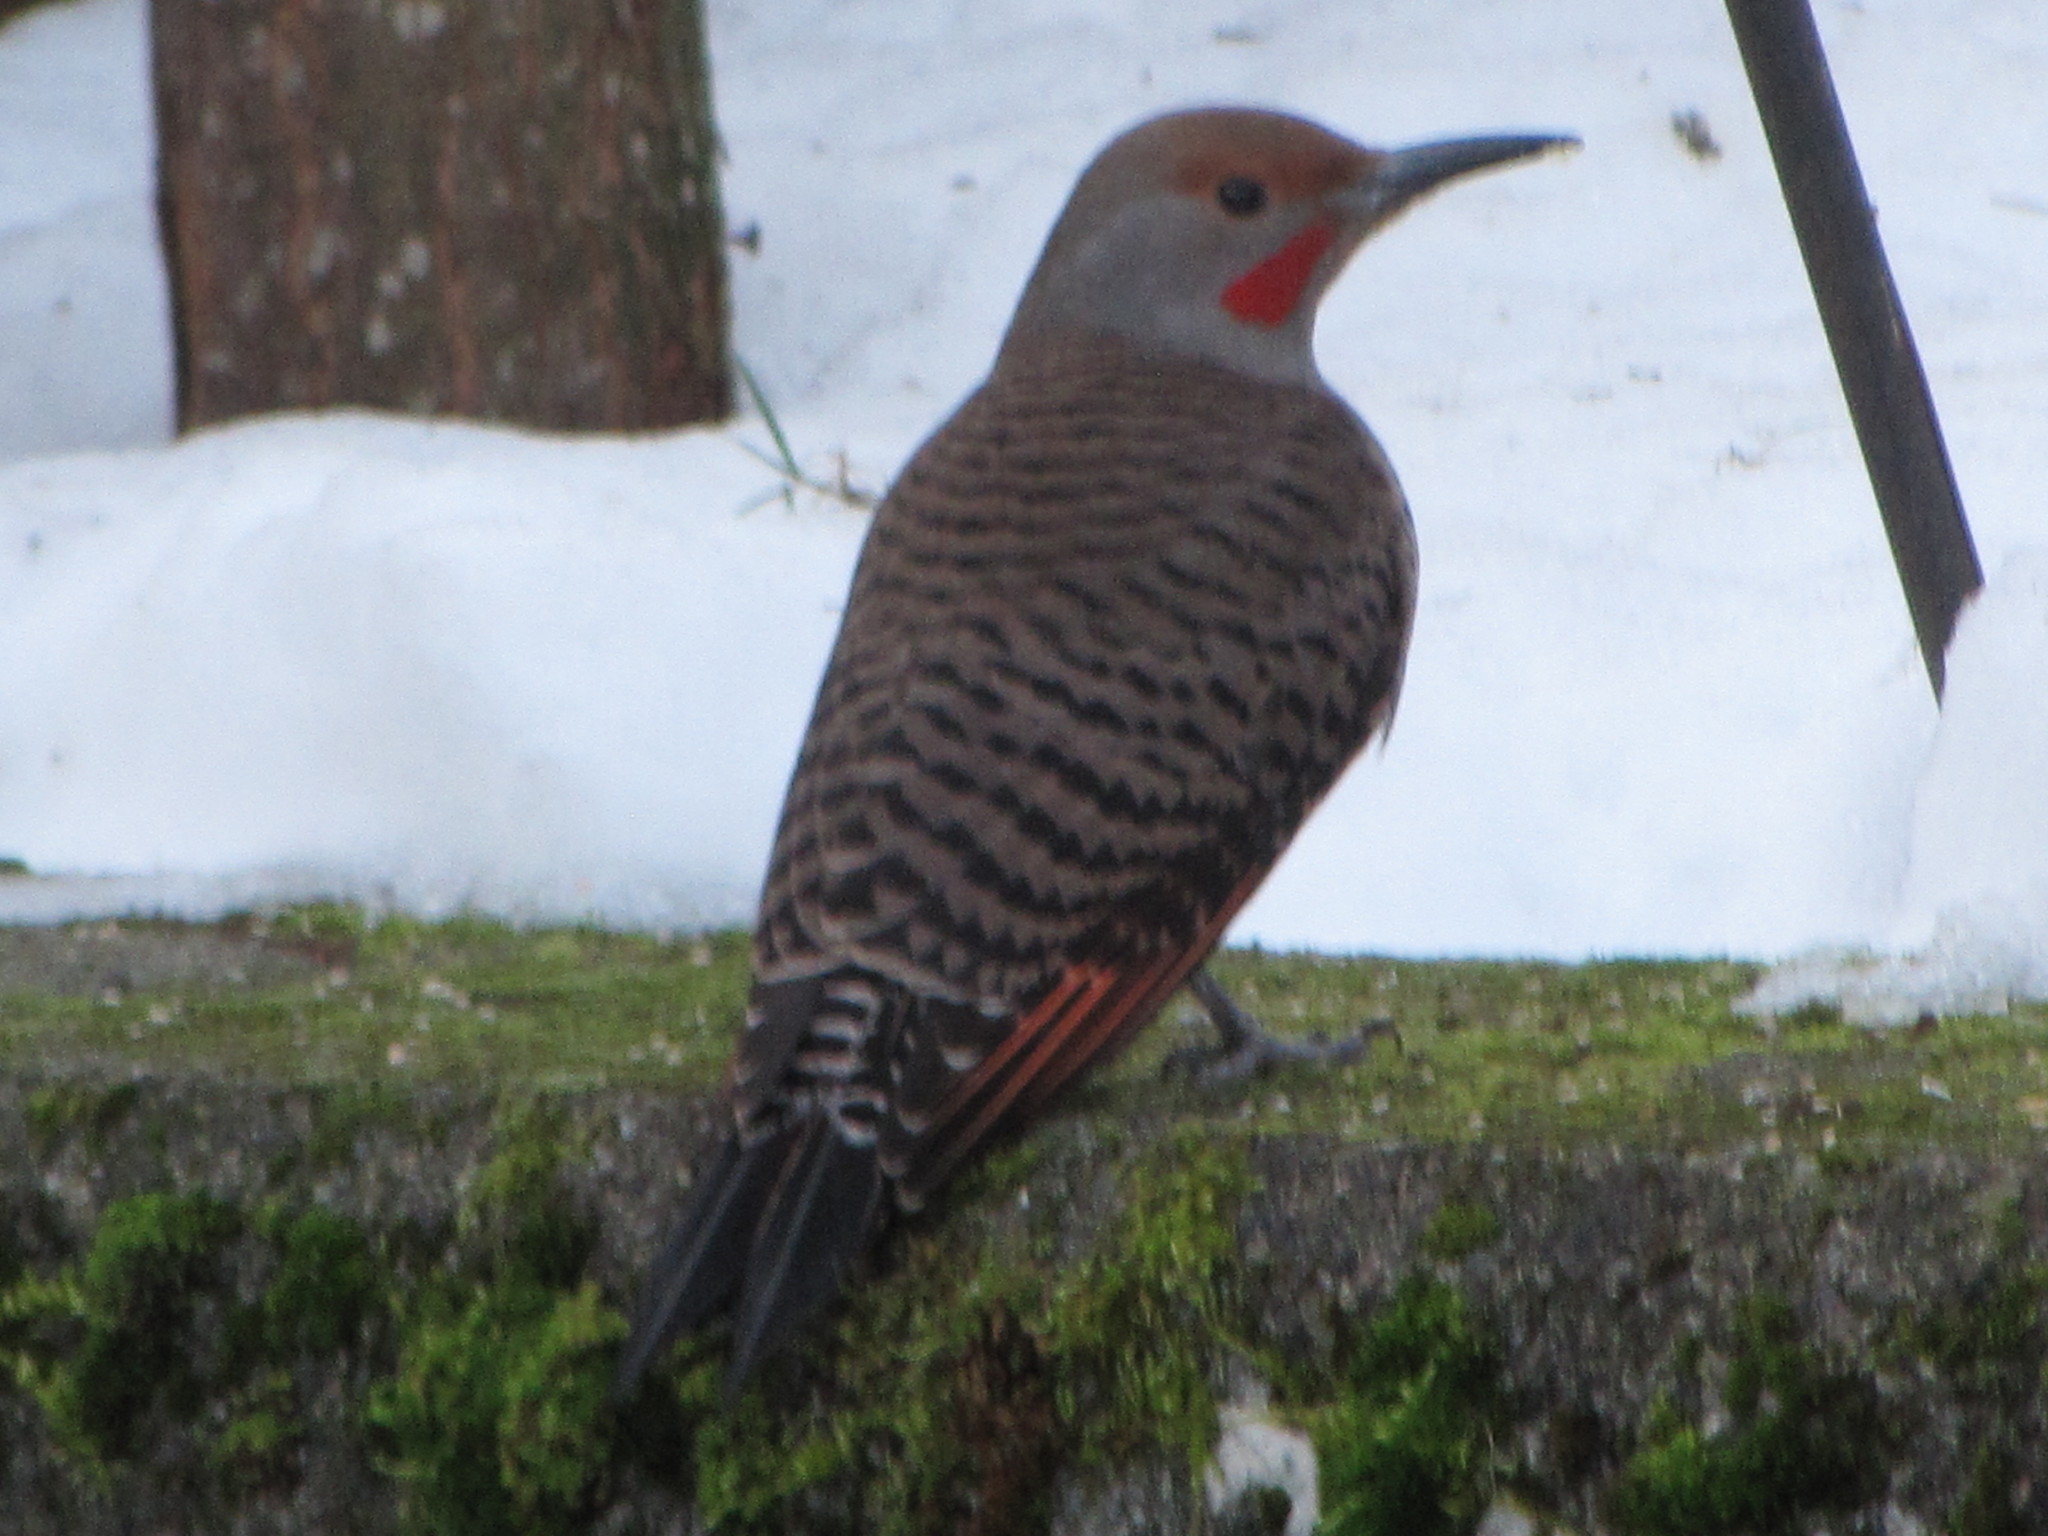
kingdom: Animalia
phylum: Chordata
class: Aves
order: Piciformes
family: Picidae
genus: Colaptes
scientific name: Colaptes auratus
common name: Northern flicker
